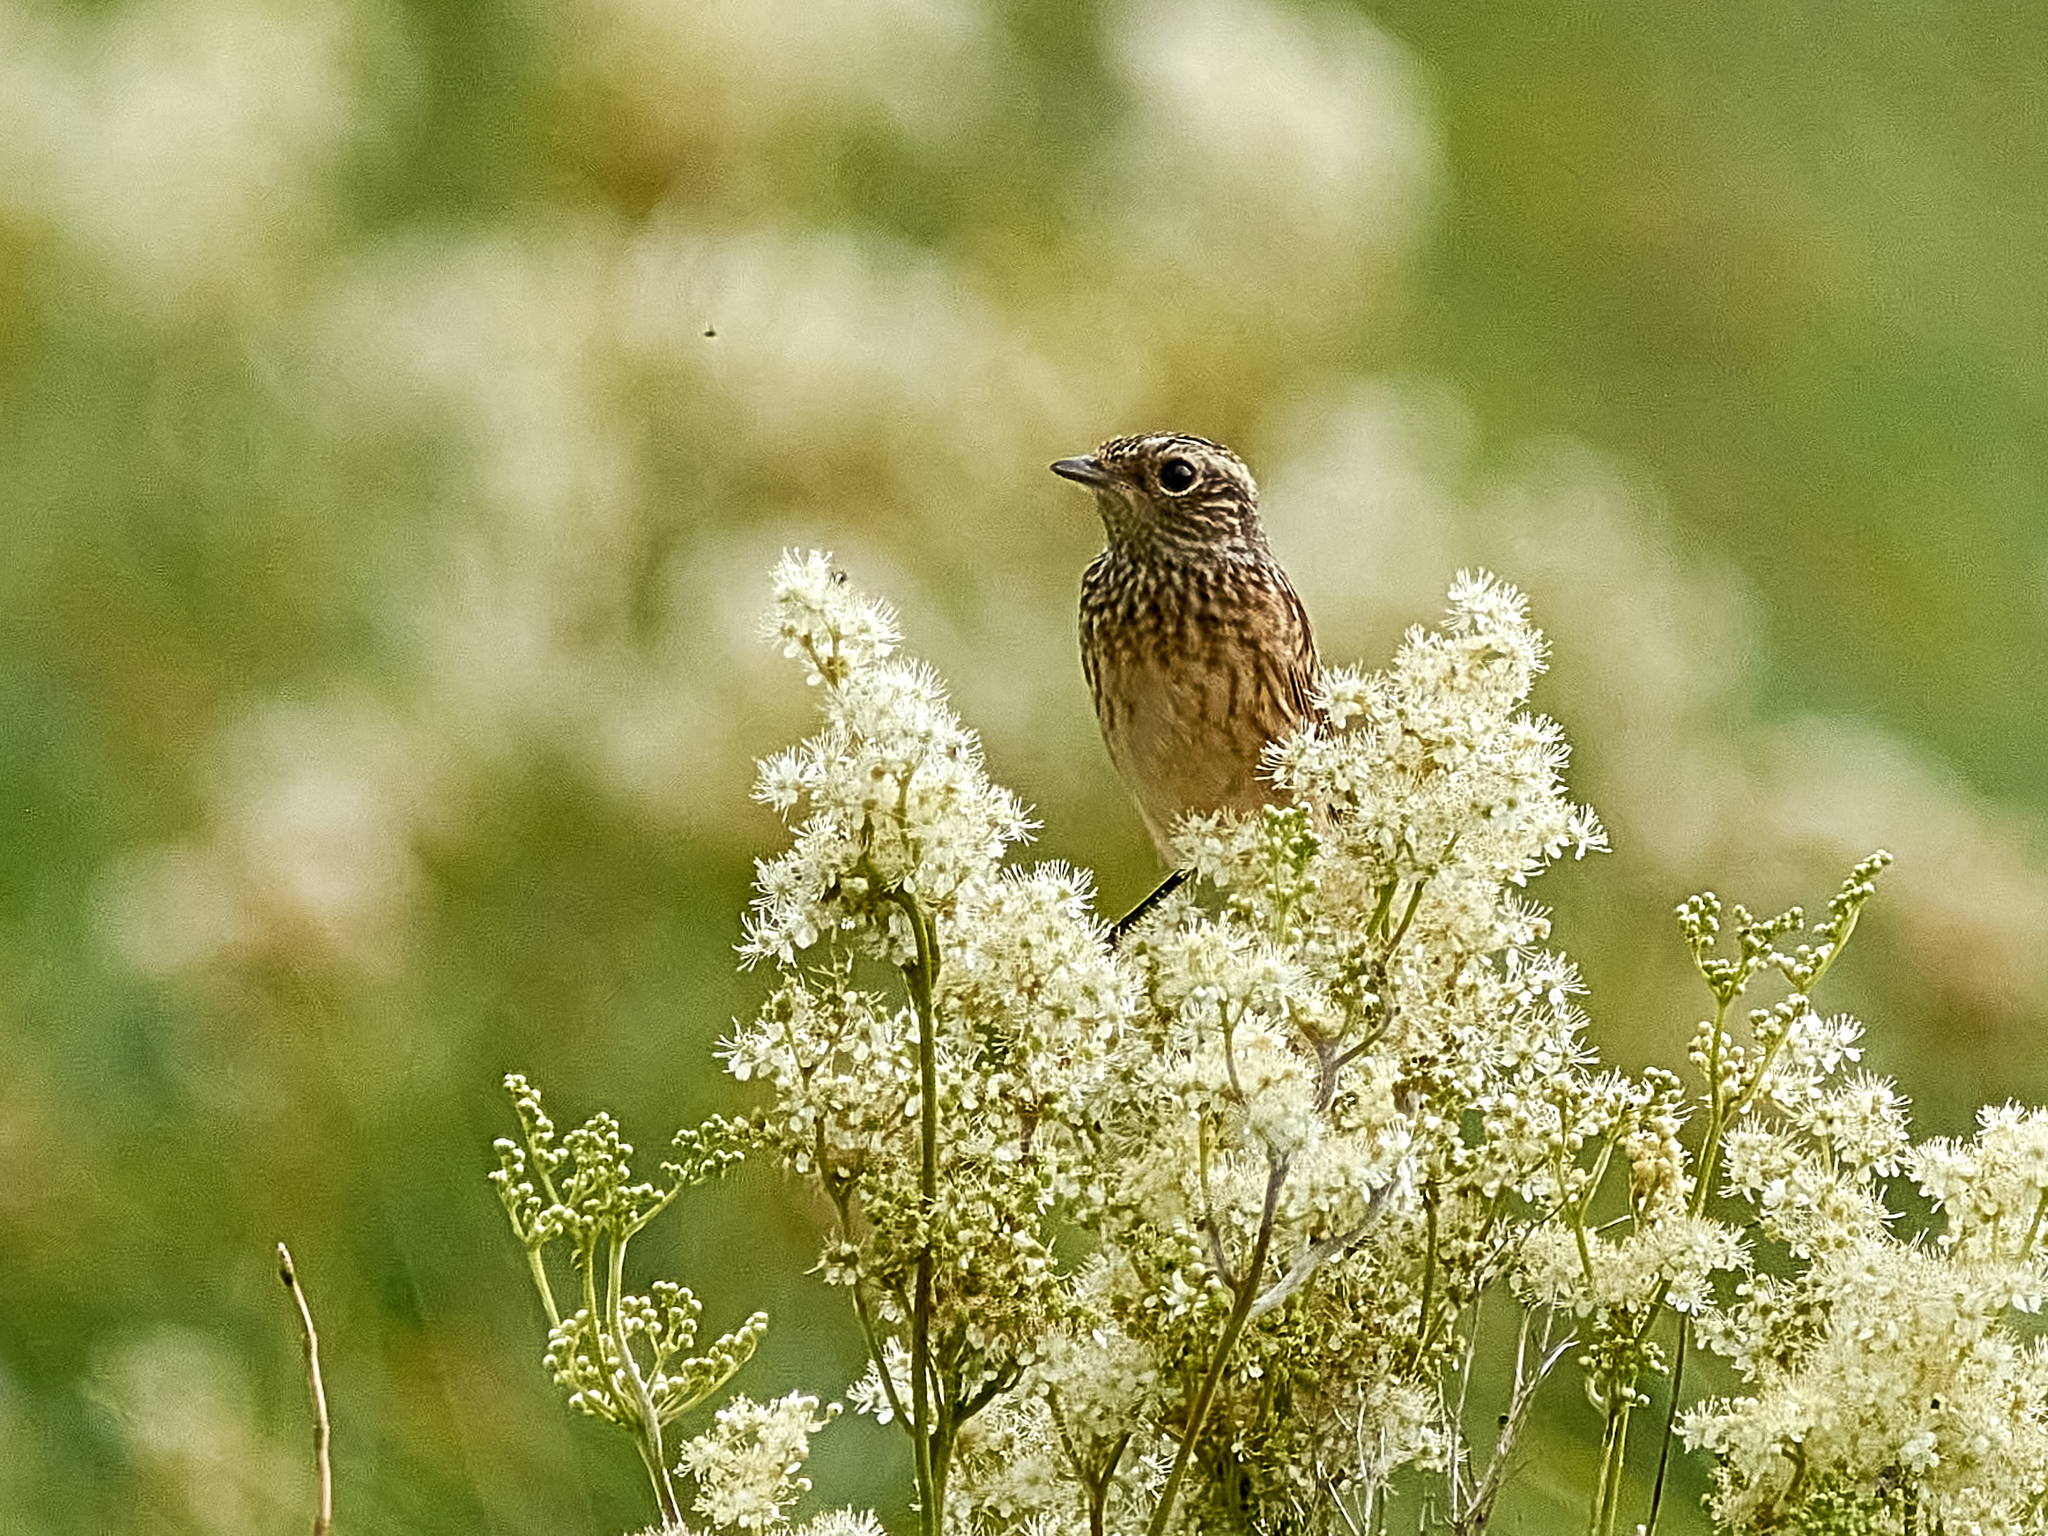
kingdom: Animalia
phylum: Chordata
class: Aves
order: Passeriformes
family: Muscicapidae
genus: Saxicola
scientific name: Saxicola rubetra
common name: Whinchat
